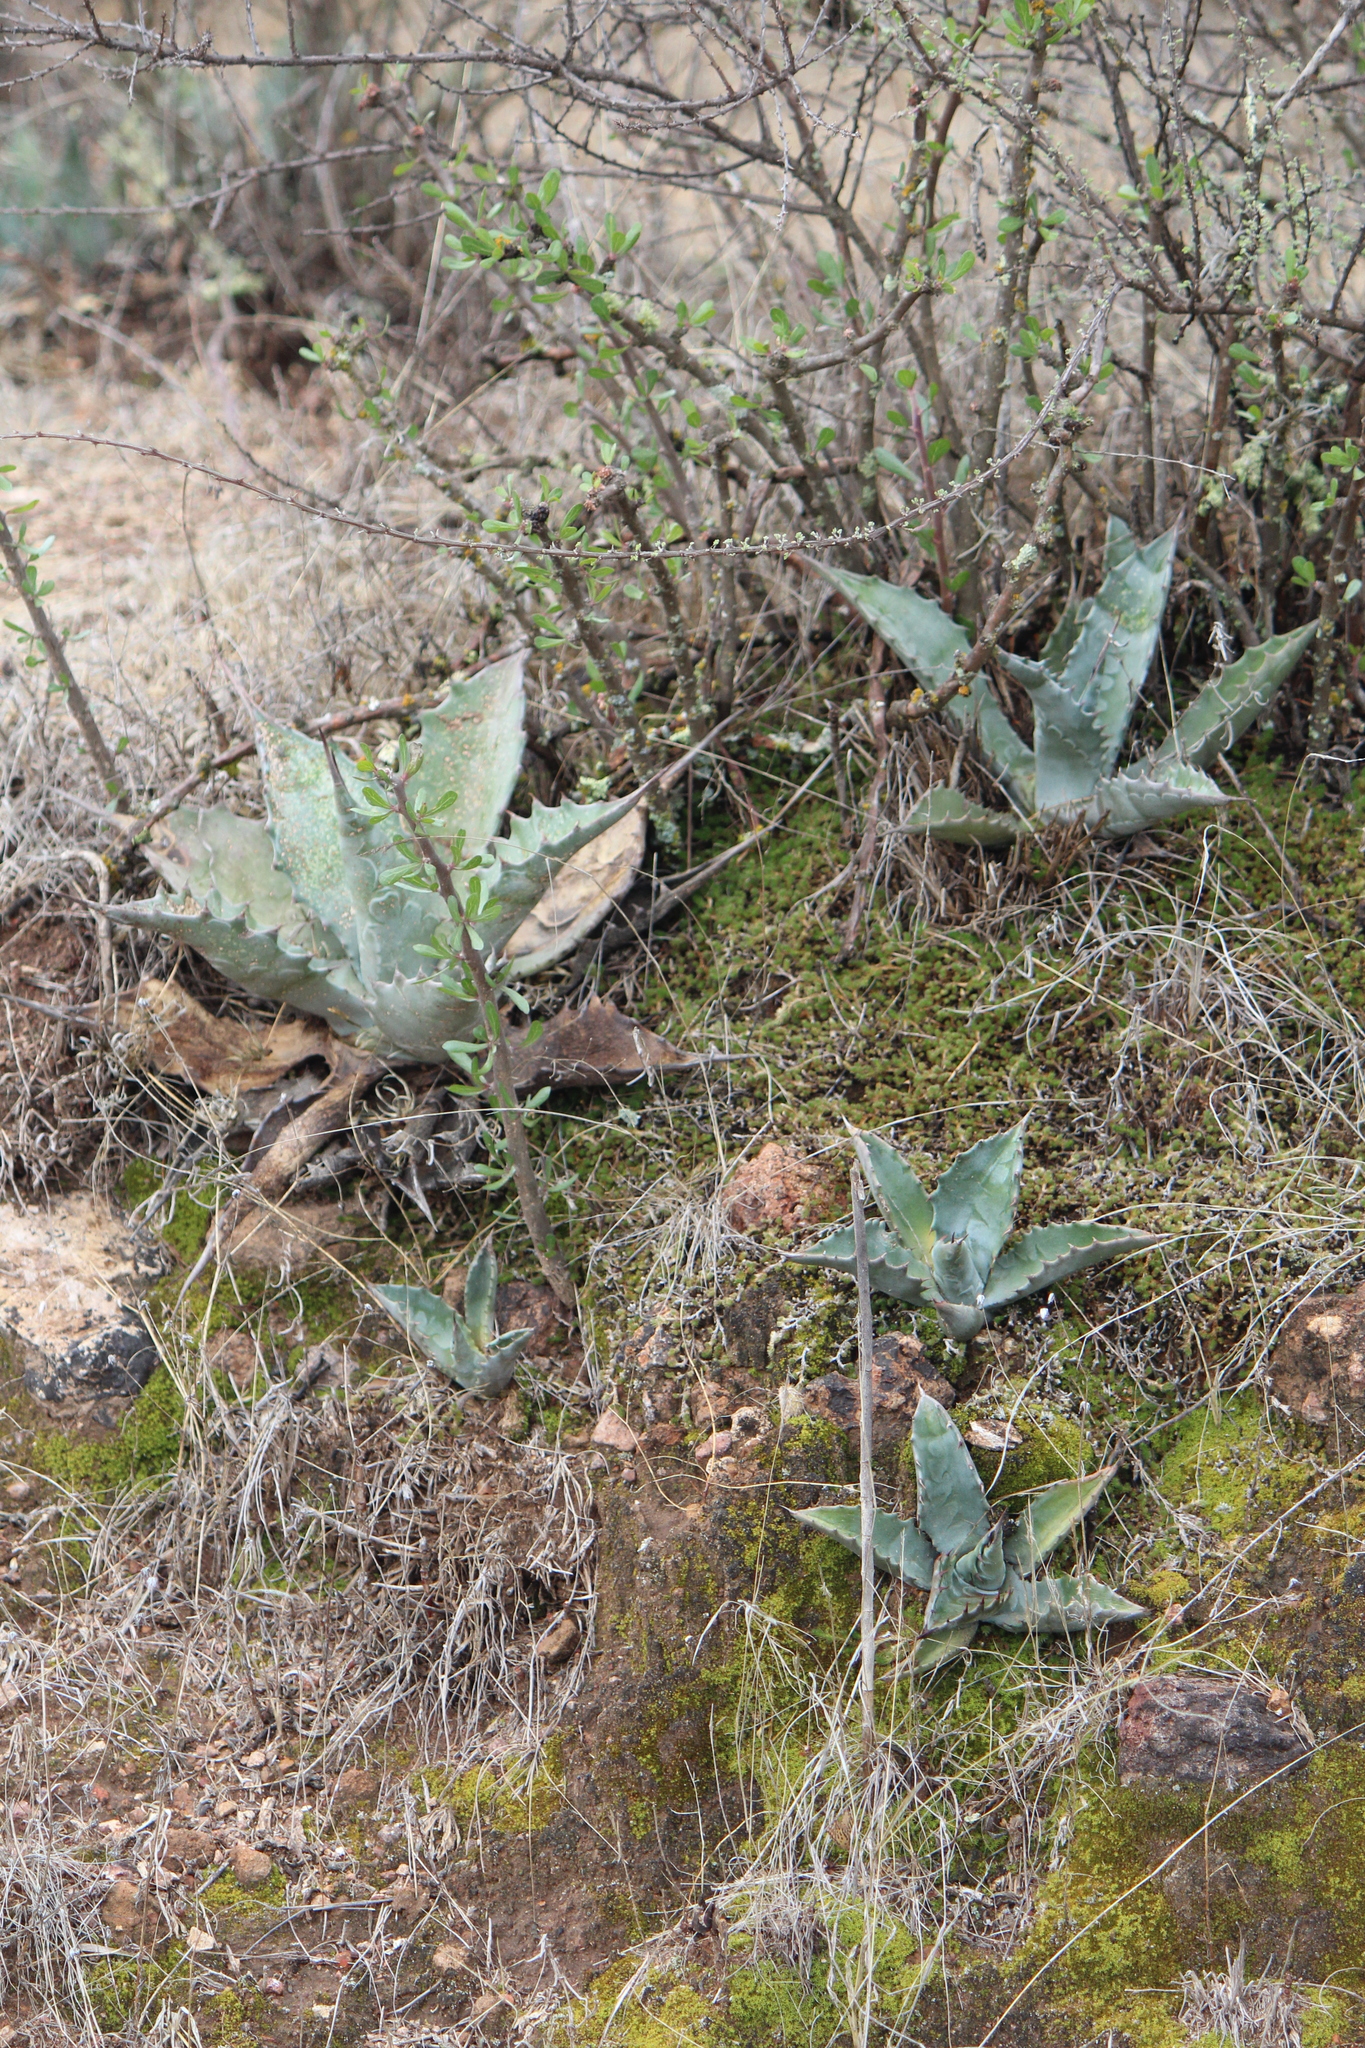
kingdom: Plantae
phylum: Tracheophyta
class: Liliopsida
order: Asparagales
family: Asparagaceae
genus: Agave
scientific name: Agave asperrima
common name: Rough agave
